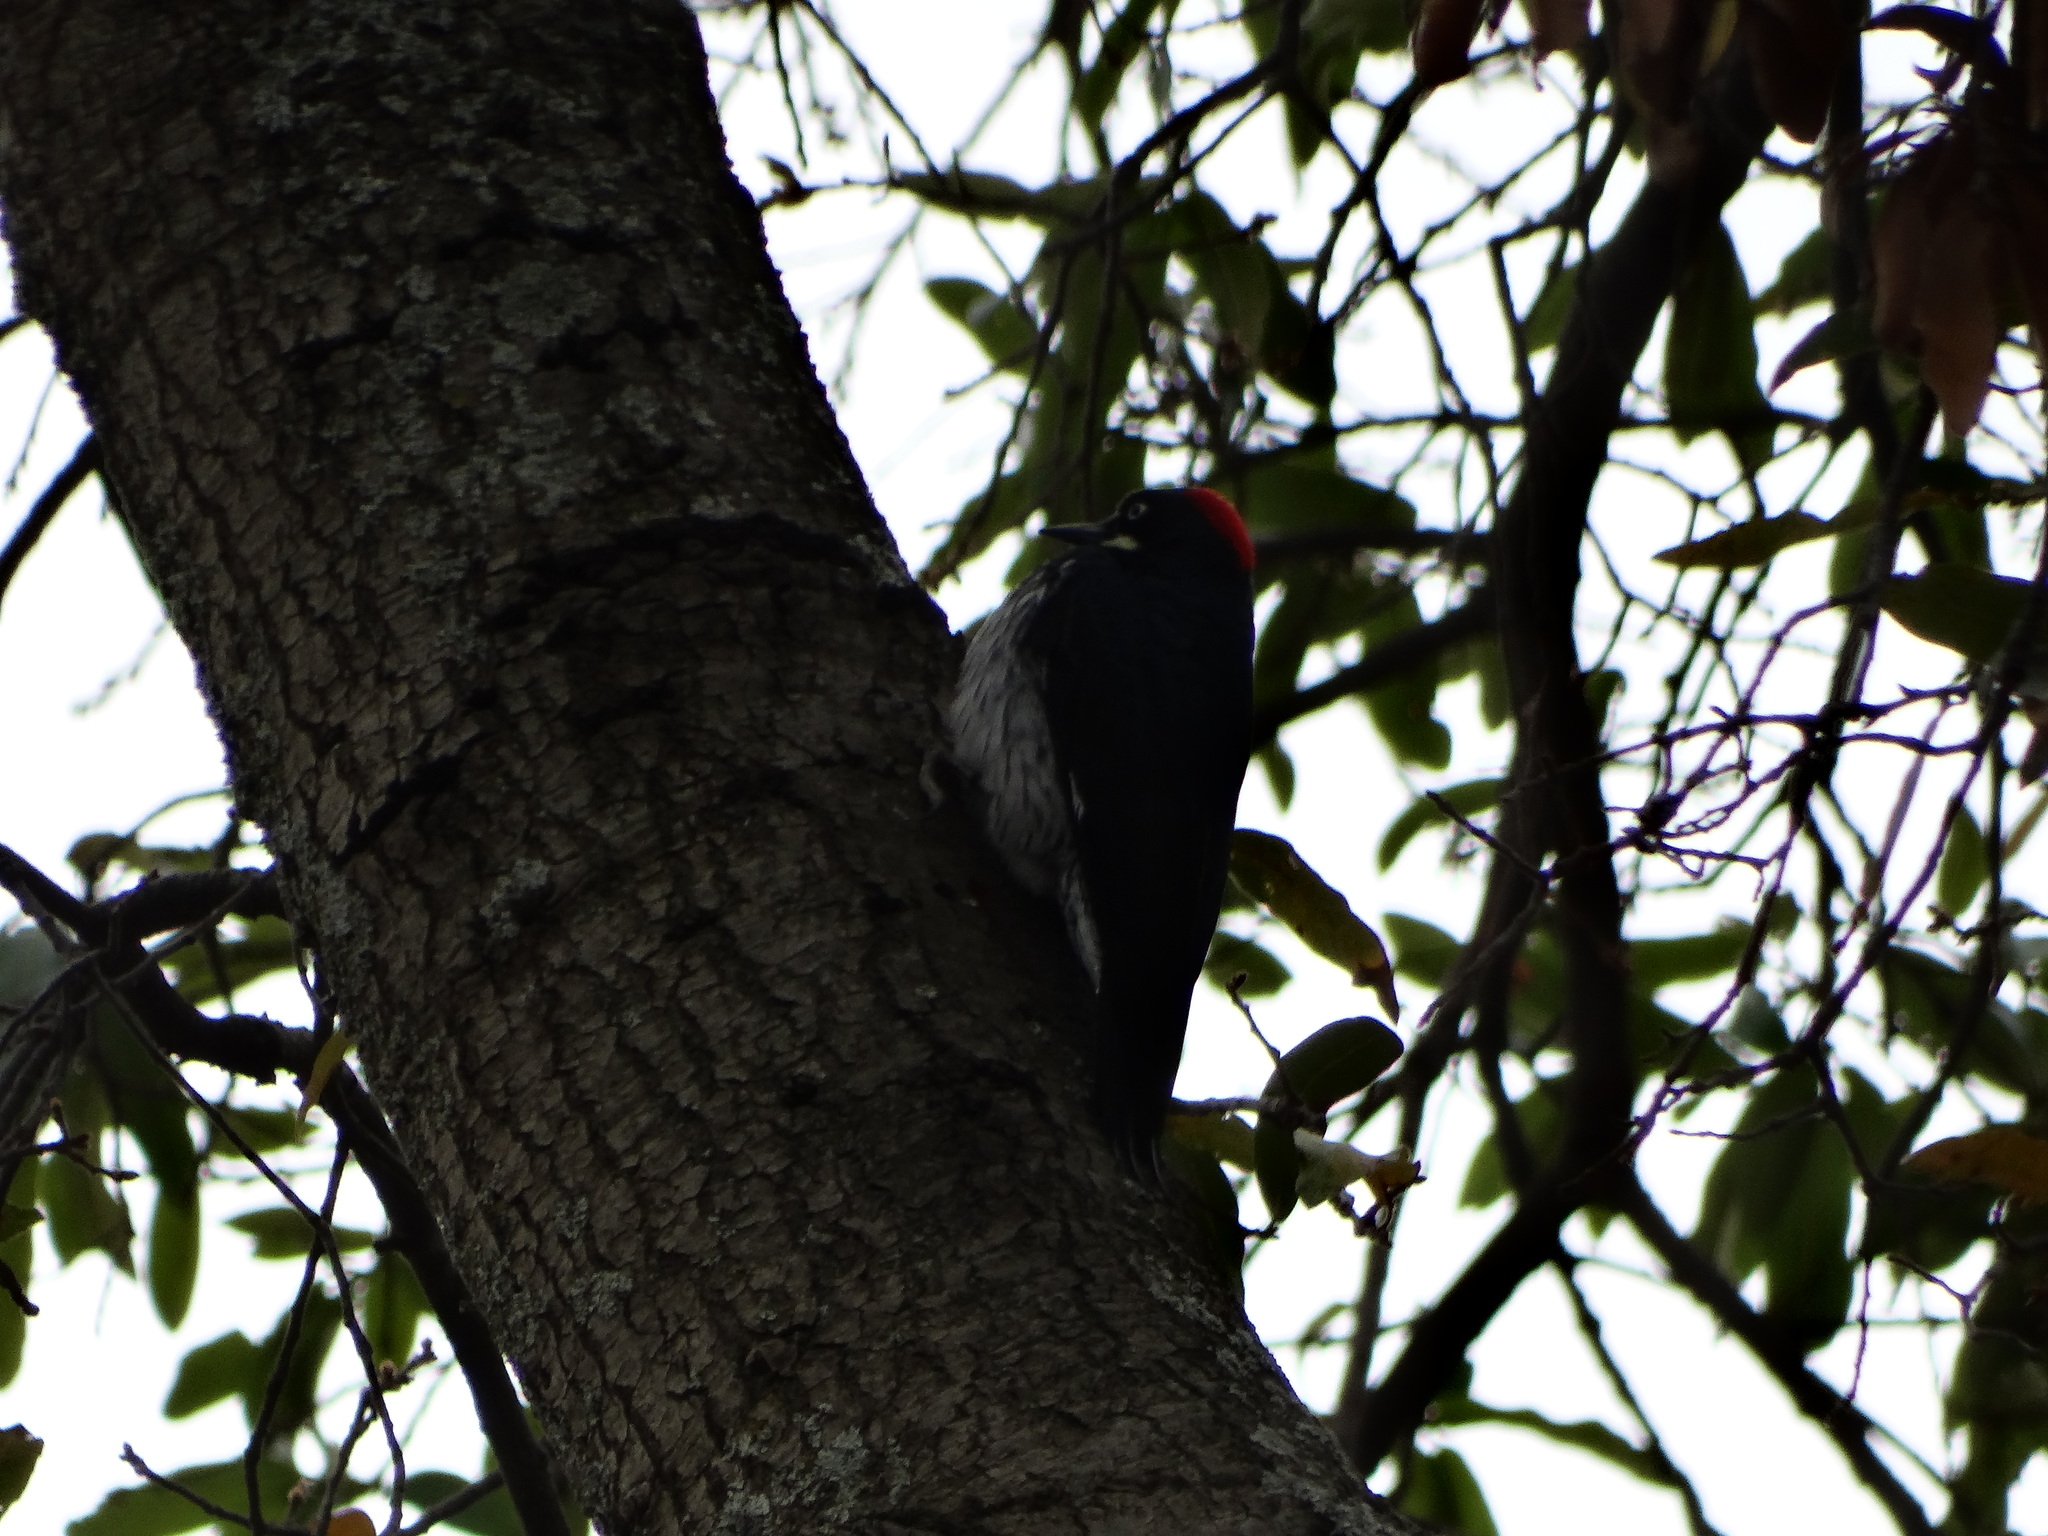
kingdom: Animalia
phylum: Chordata
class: Aves
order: Piciformes
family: Picidae
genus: Melanerpes
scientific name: Melanerpes formicivorus
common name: Acorn woodpecker
